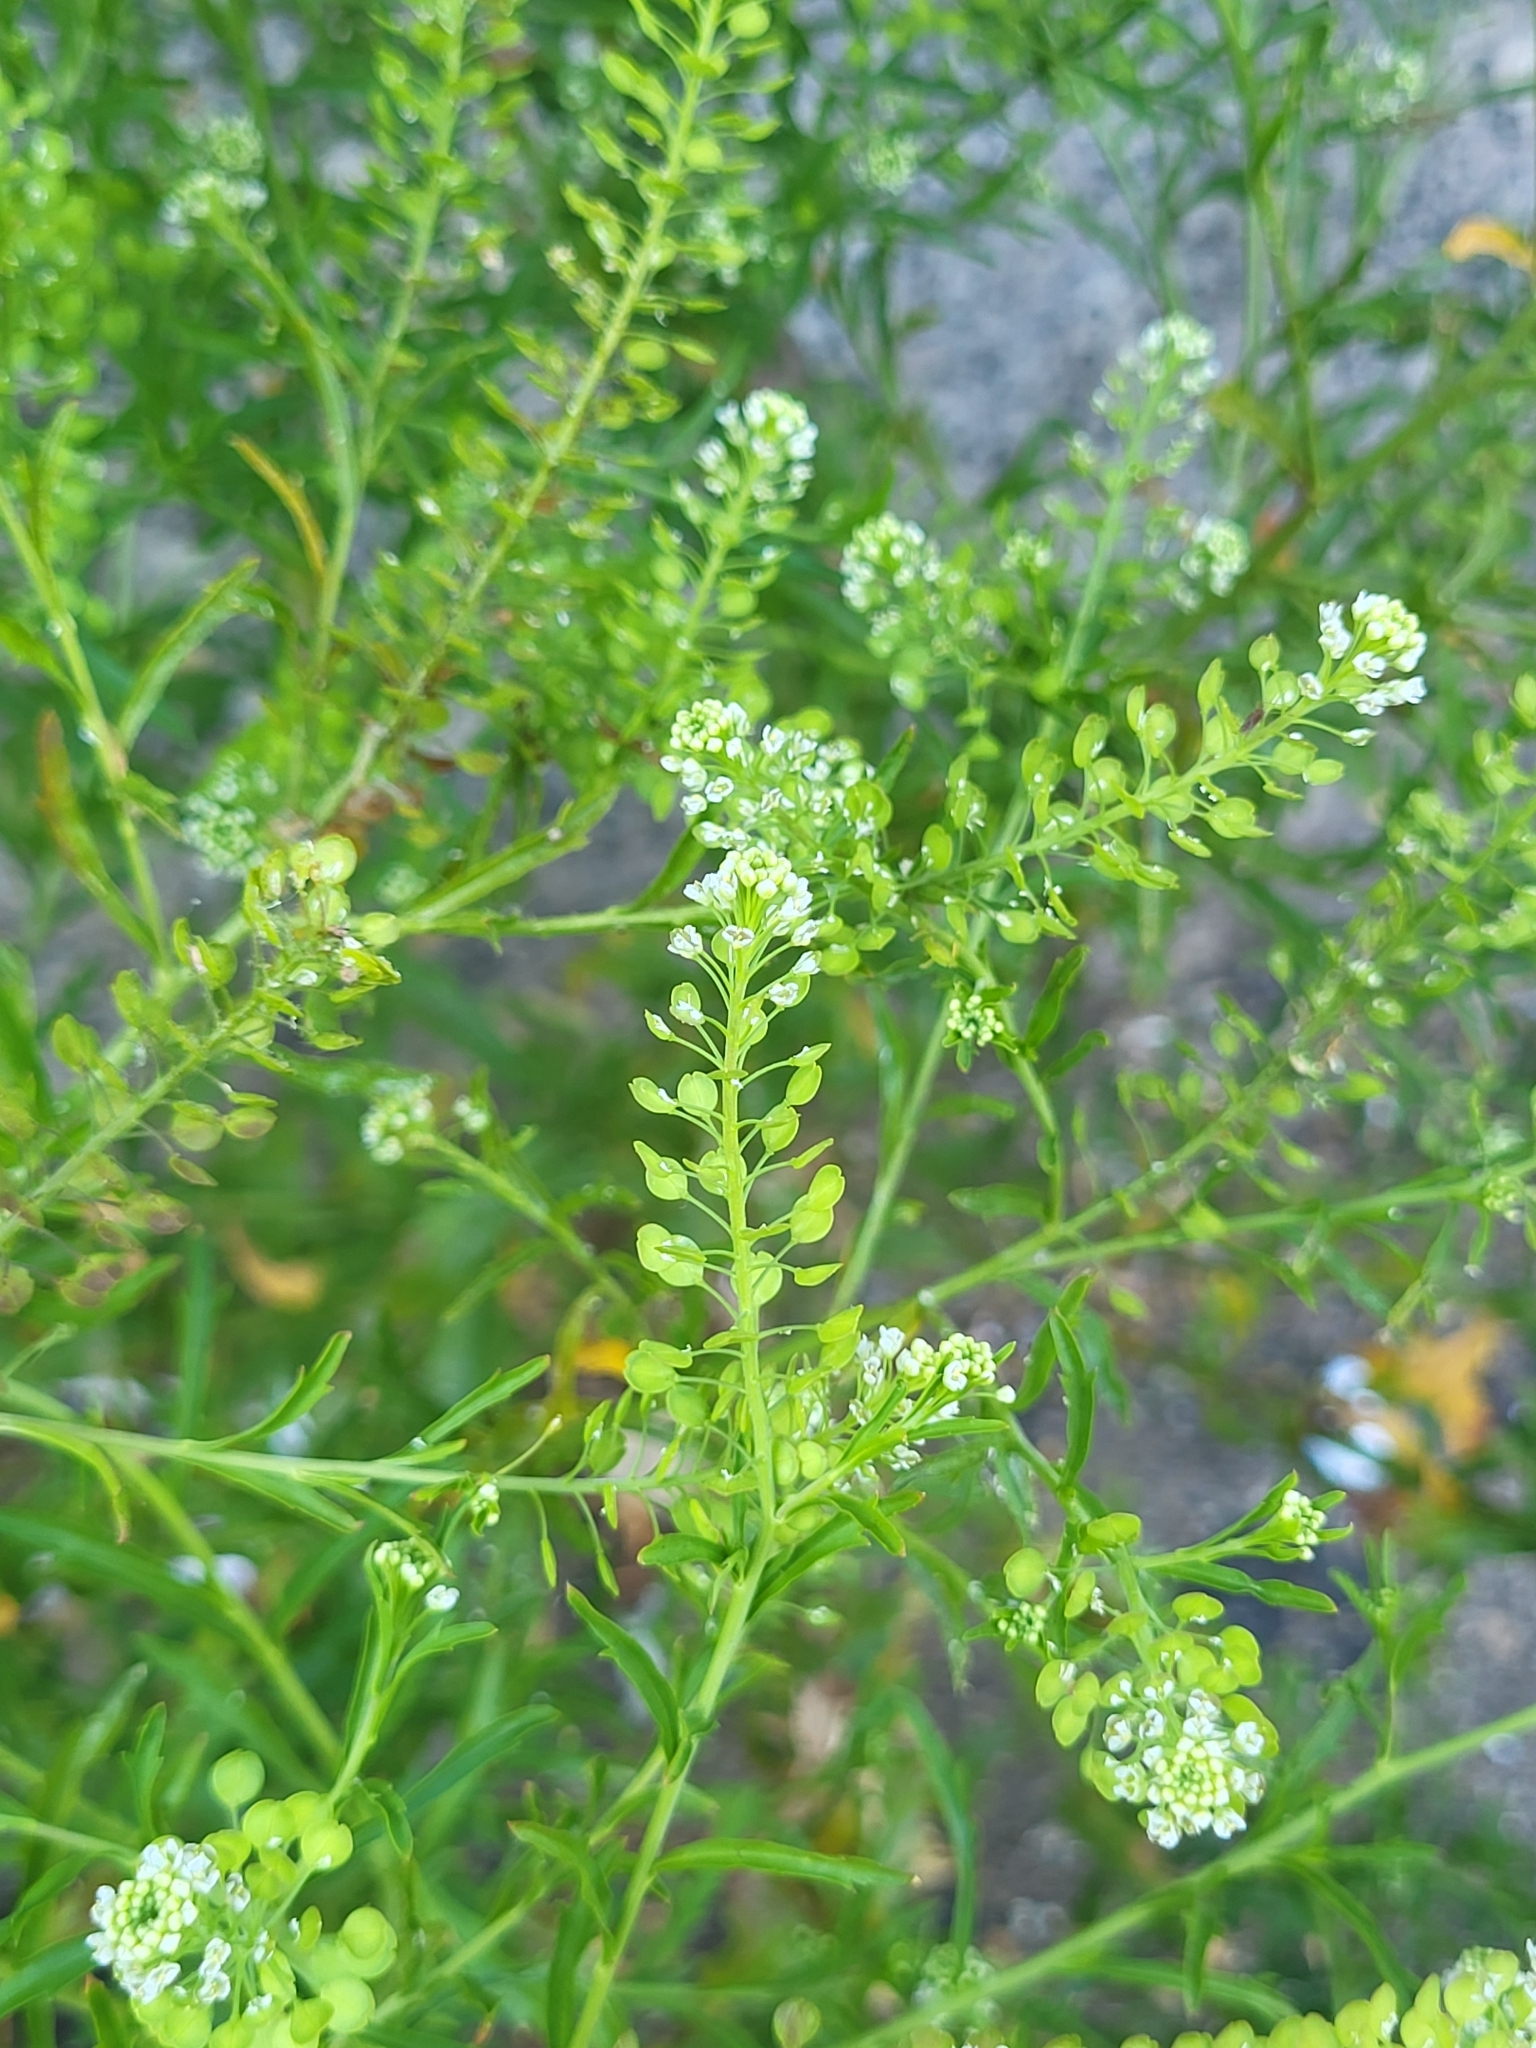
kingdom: Plantae
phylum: Tracheophyta
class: Magnoliopsida
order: Brassicales
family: Brassicaceae
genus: Lepidium
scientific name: Lepidium virginicum
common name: Least pepperwort
